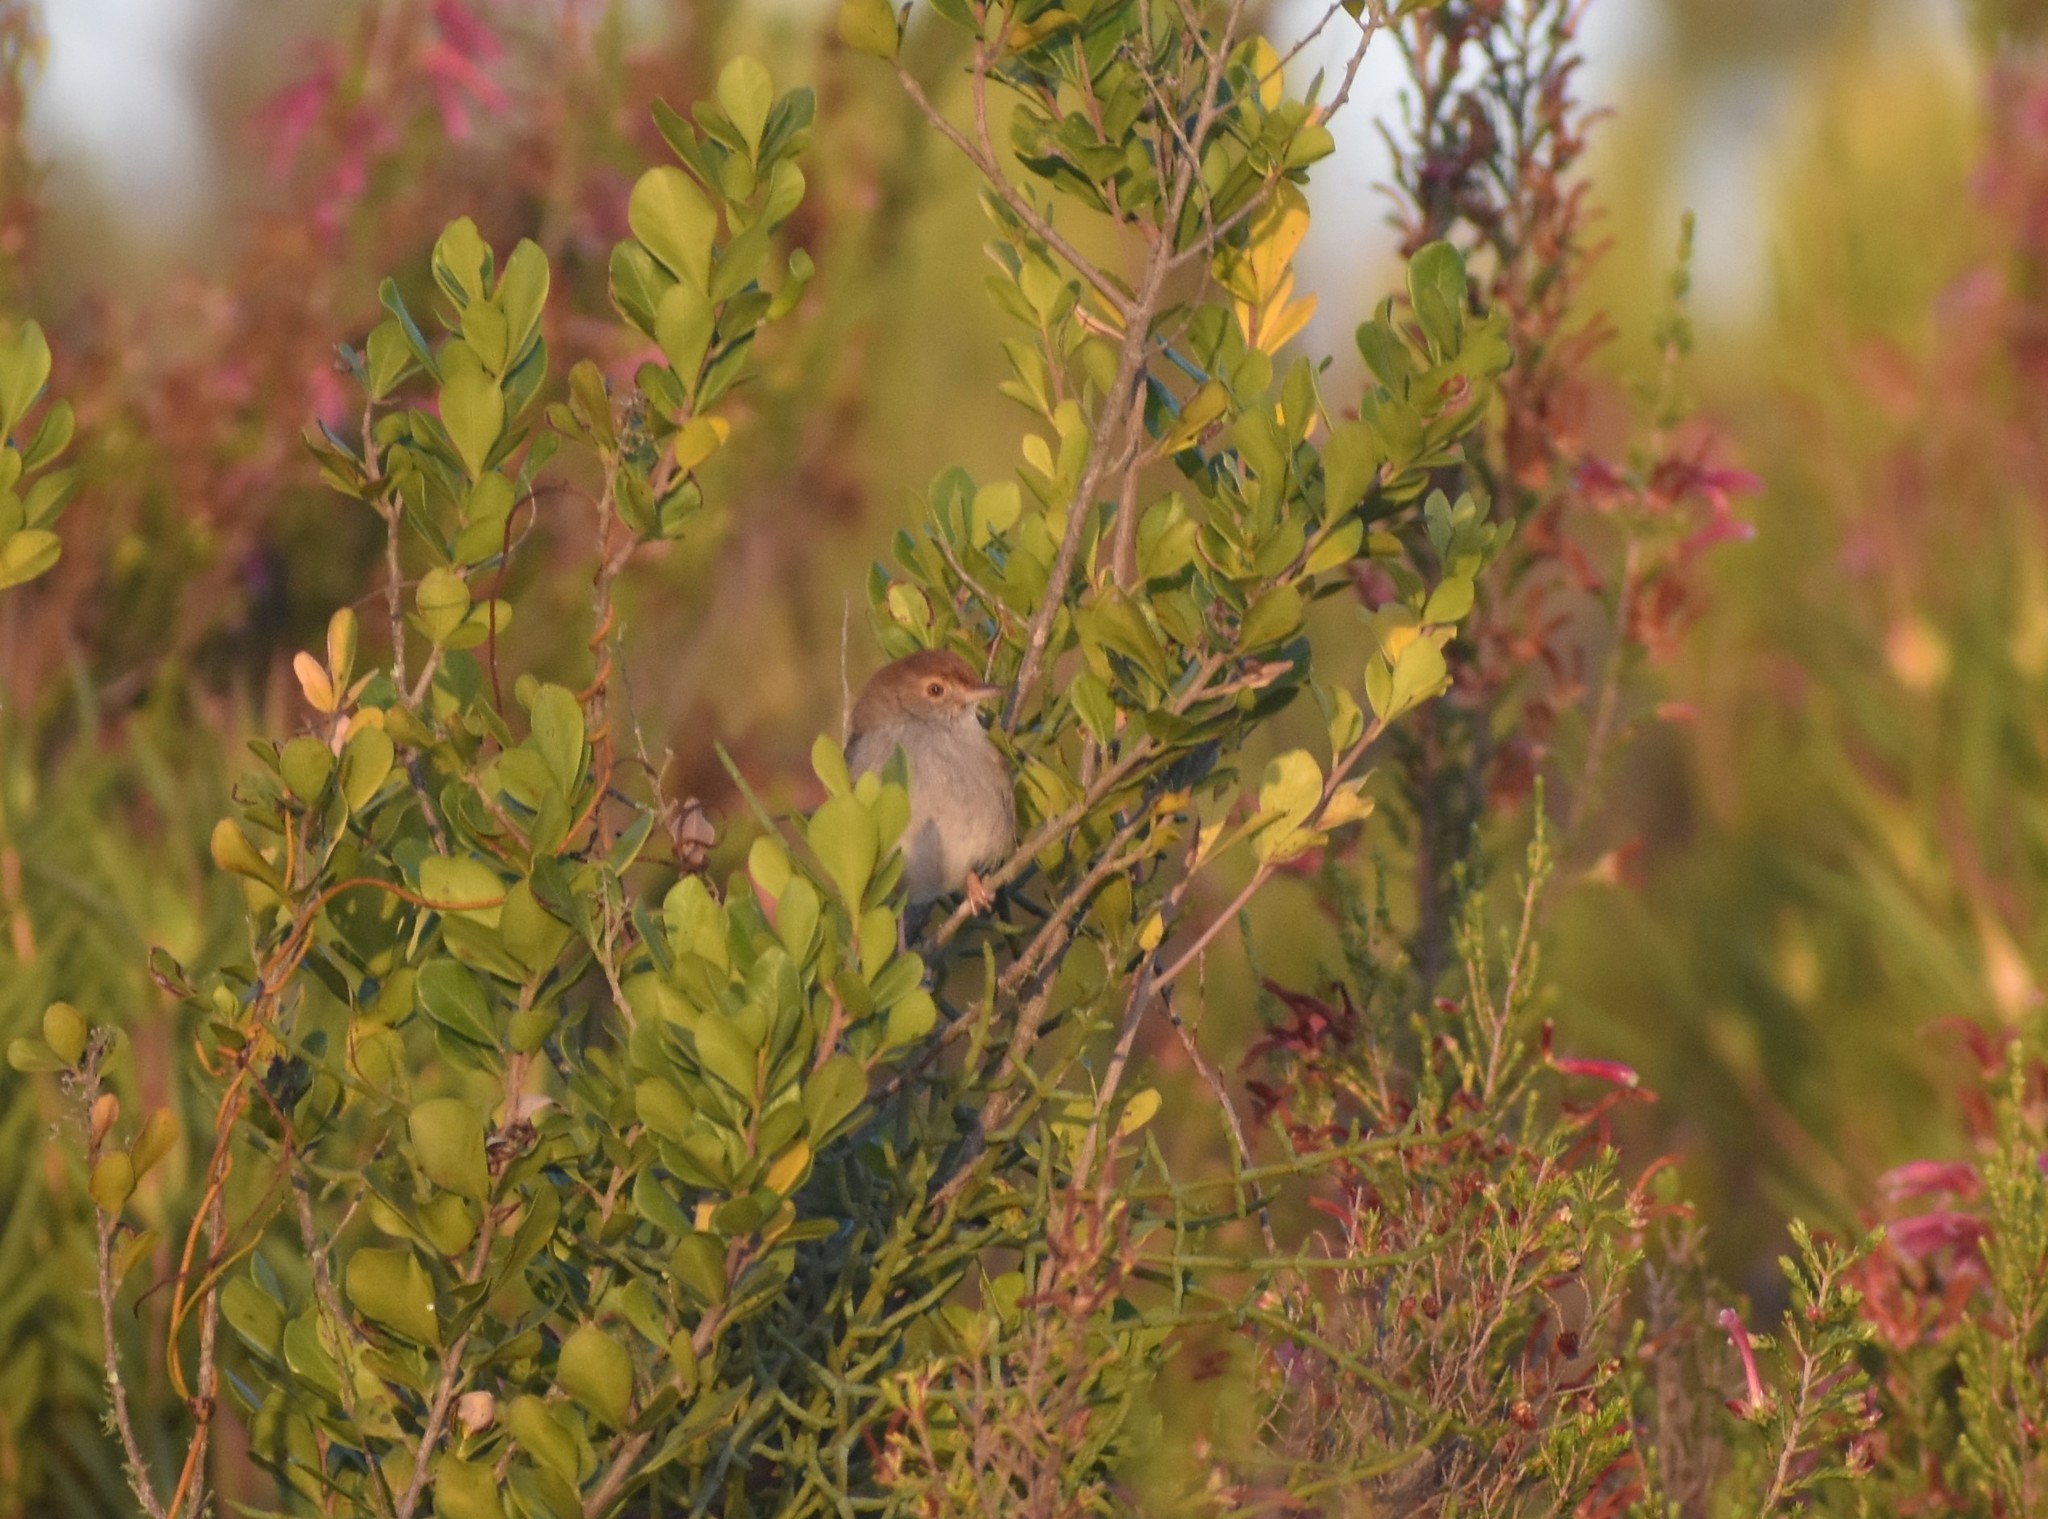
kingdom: Animalia
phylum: Chordata
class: Aves
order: Passeriformes
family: Cisticolidae
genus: Cisticola
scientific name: Cisticola fulvicapilla
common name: Neddicky
